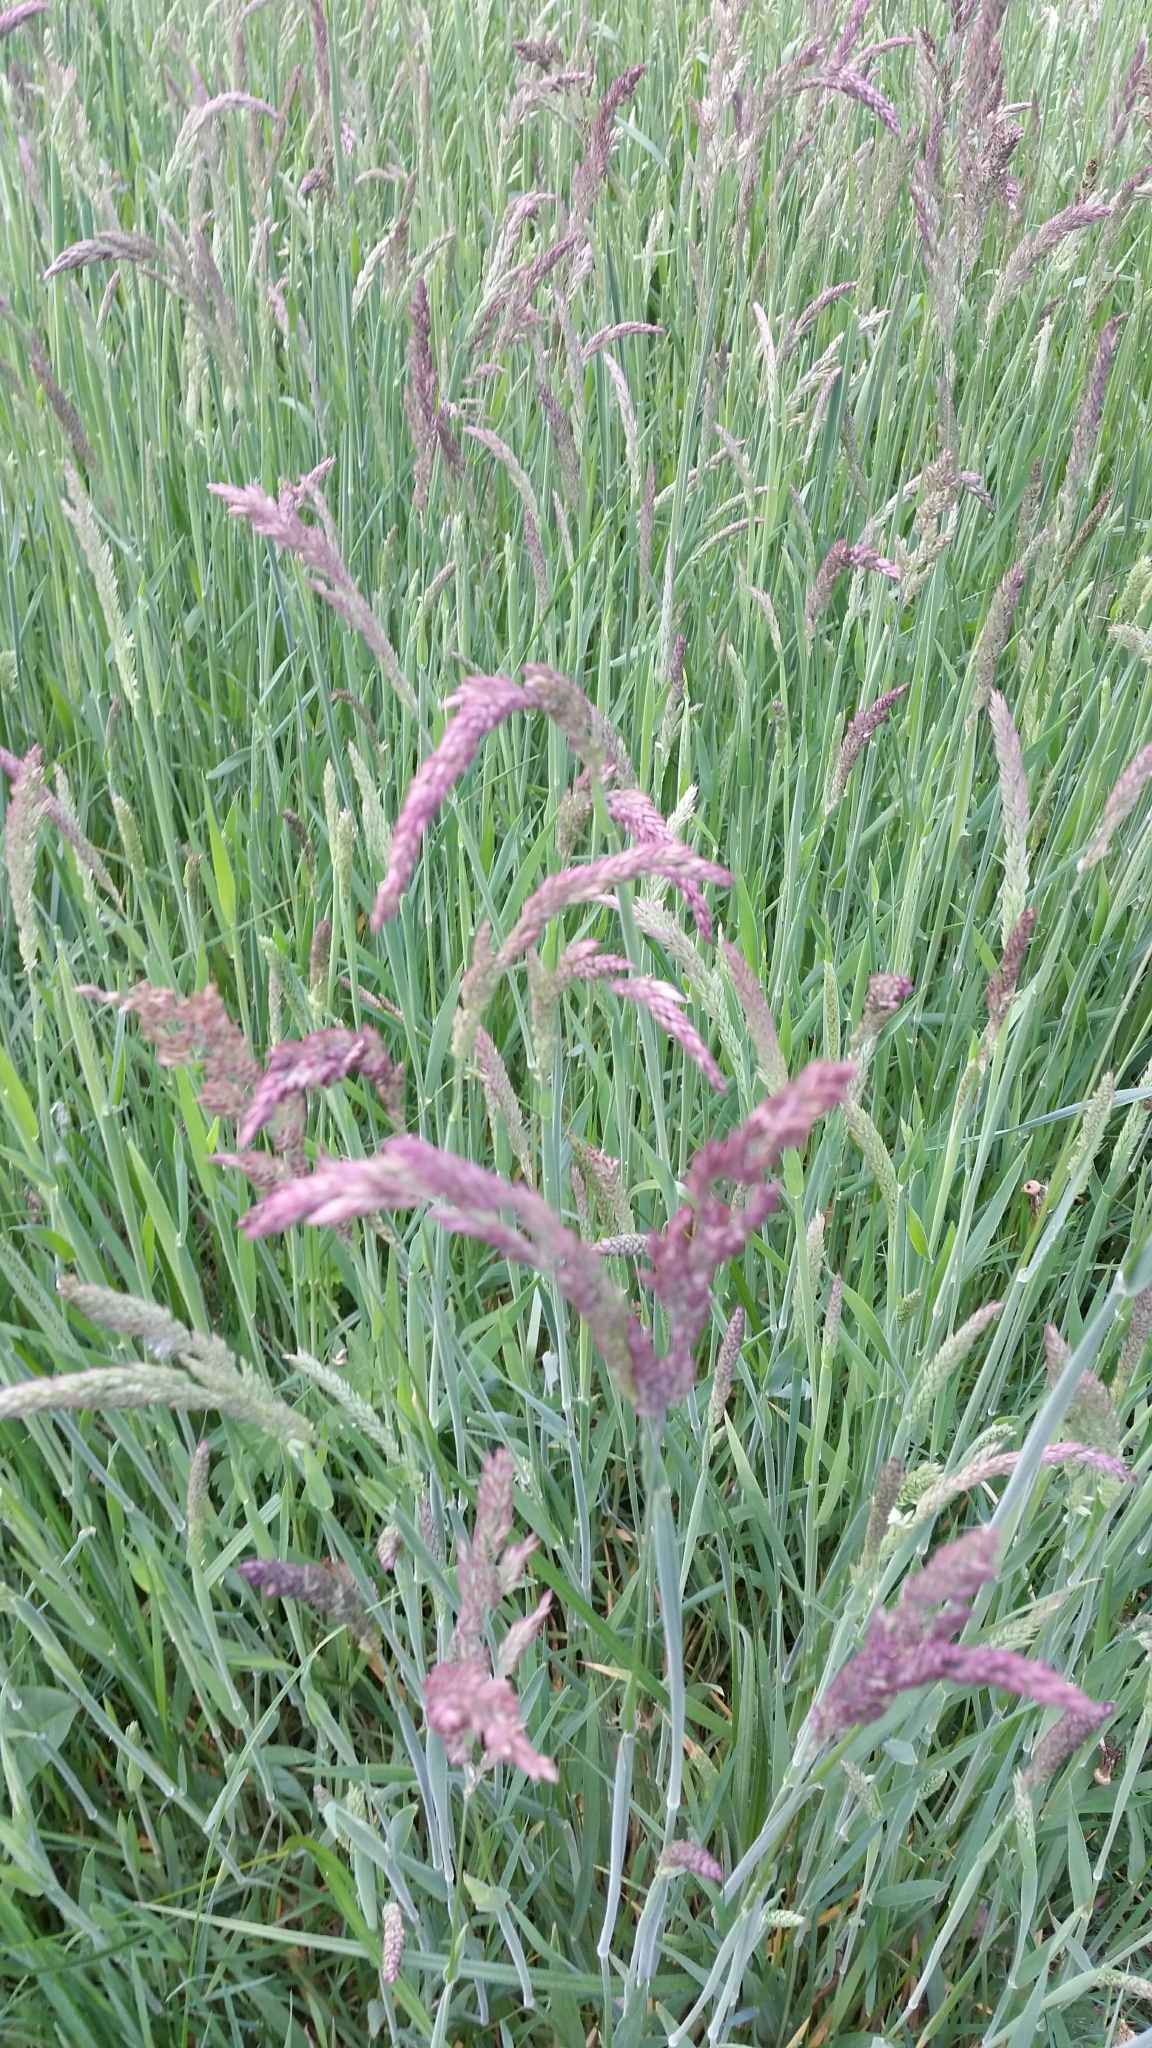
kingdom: Plantae
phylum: Tracheophyta
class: Liliopsida
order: Poales
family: Poaceae
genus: Holcus
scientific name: Holcus lanatus
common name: Yorkshire-fog
